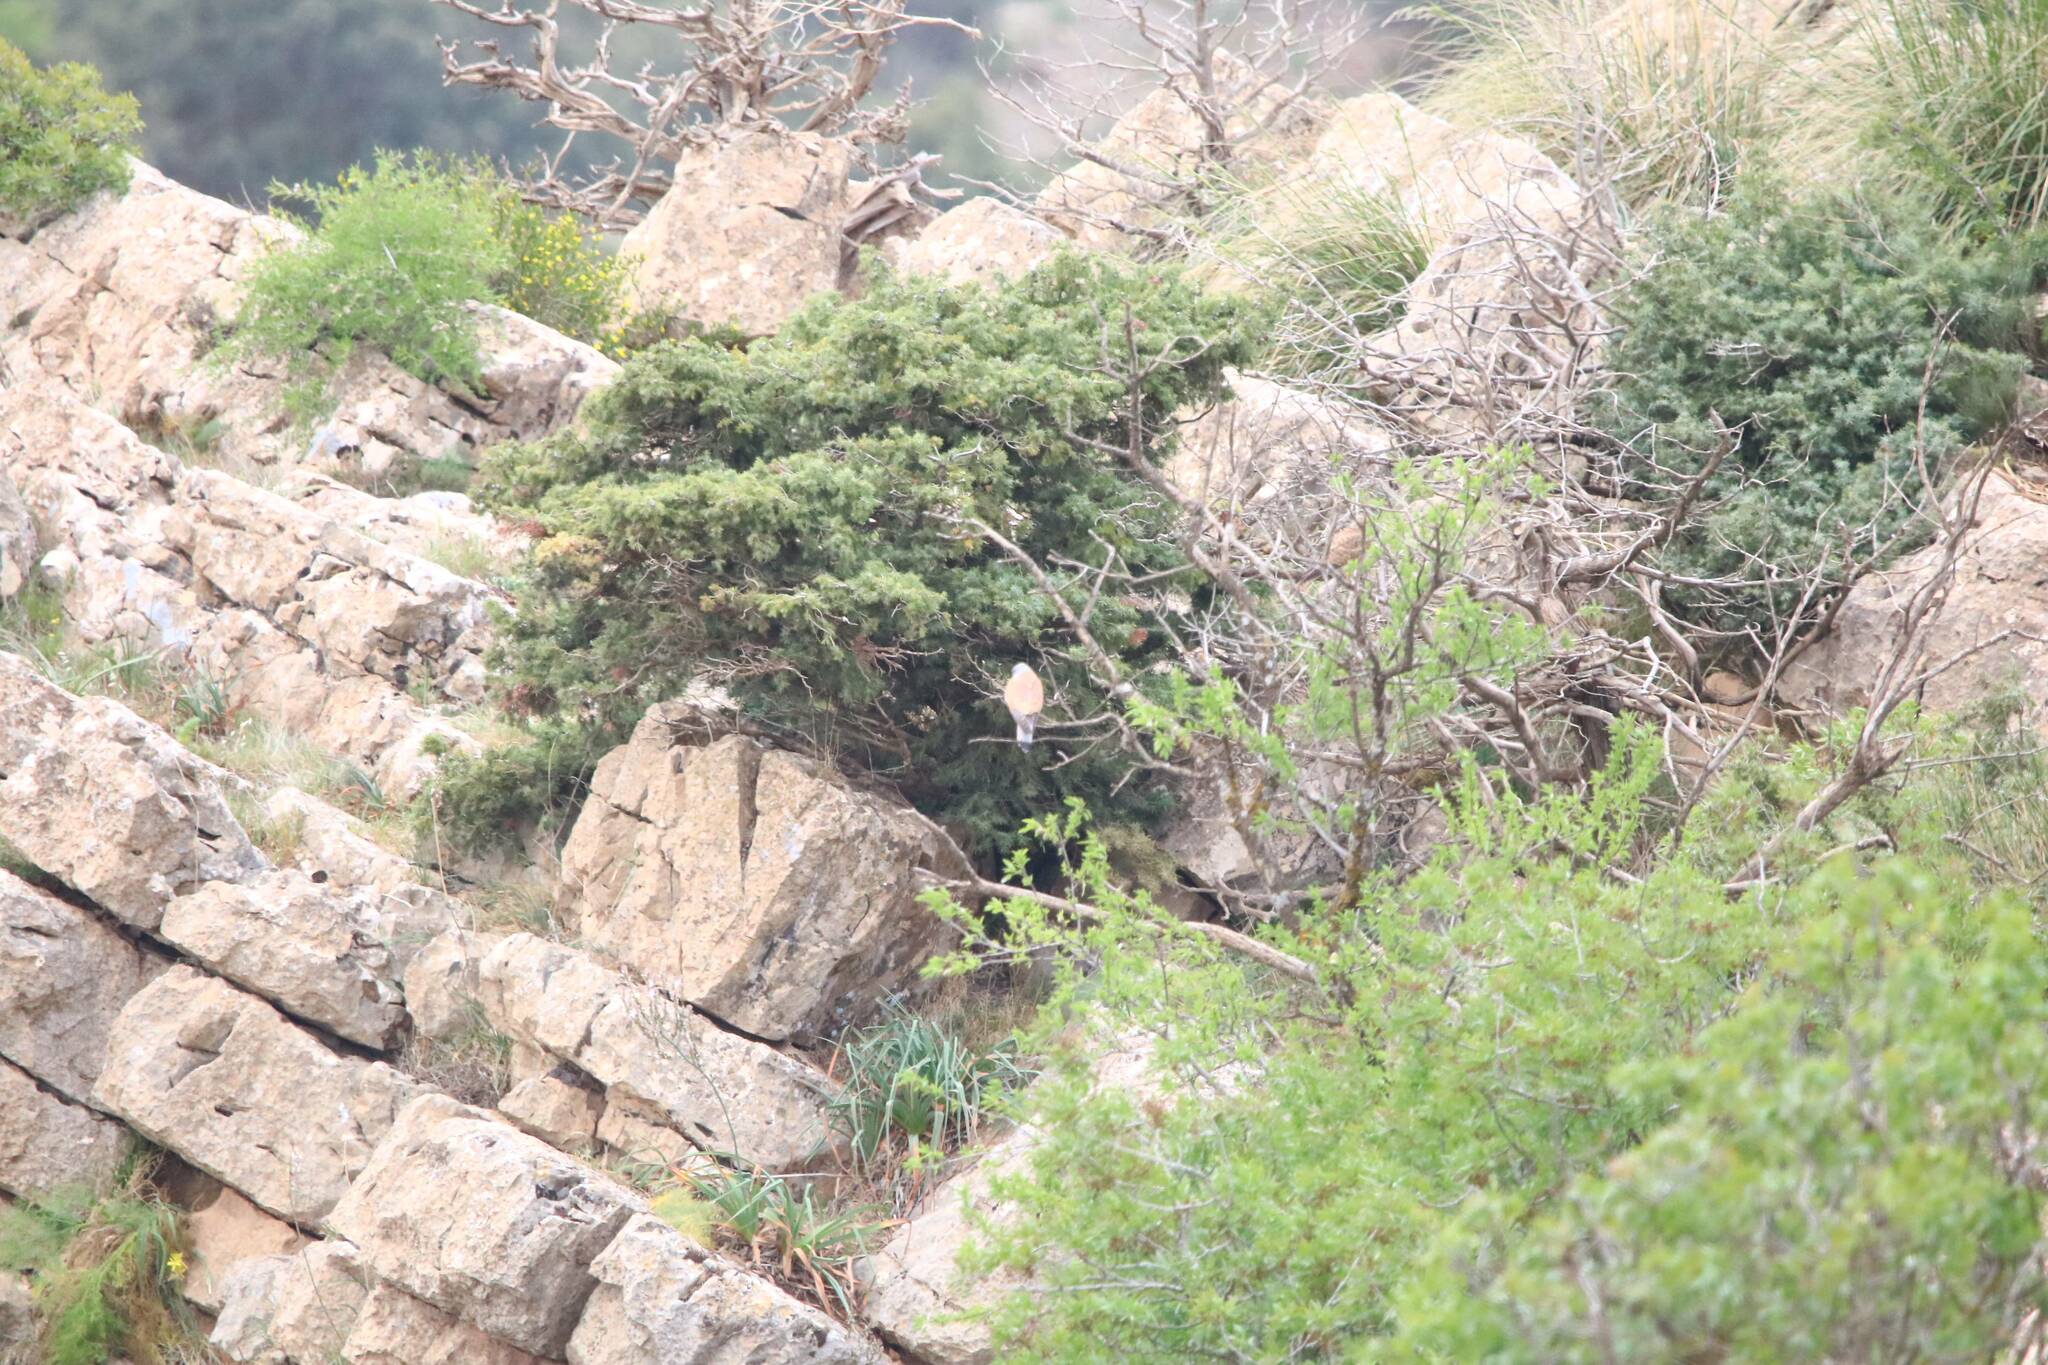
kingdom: Animalia
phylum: Chordata
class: Aves
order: Falconiformes
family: Falconidae
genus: Falco
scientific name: Falco naumanni
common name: Lesser kestrel
